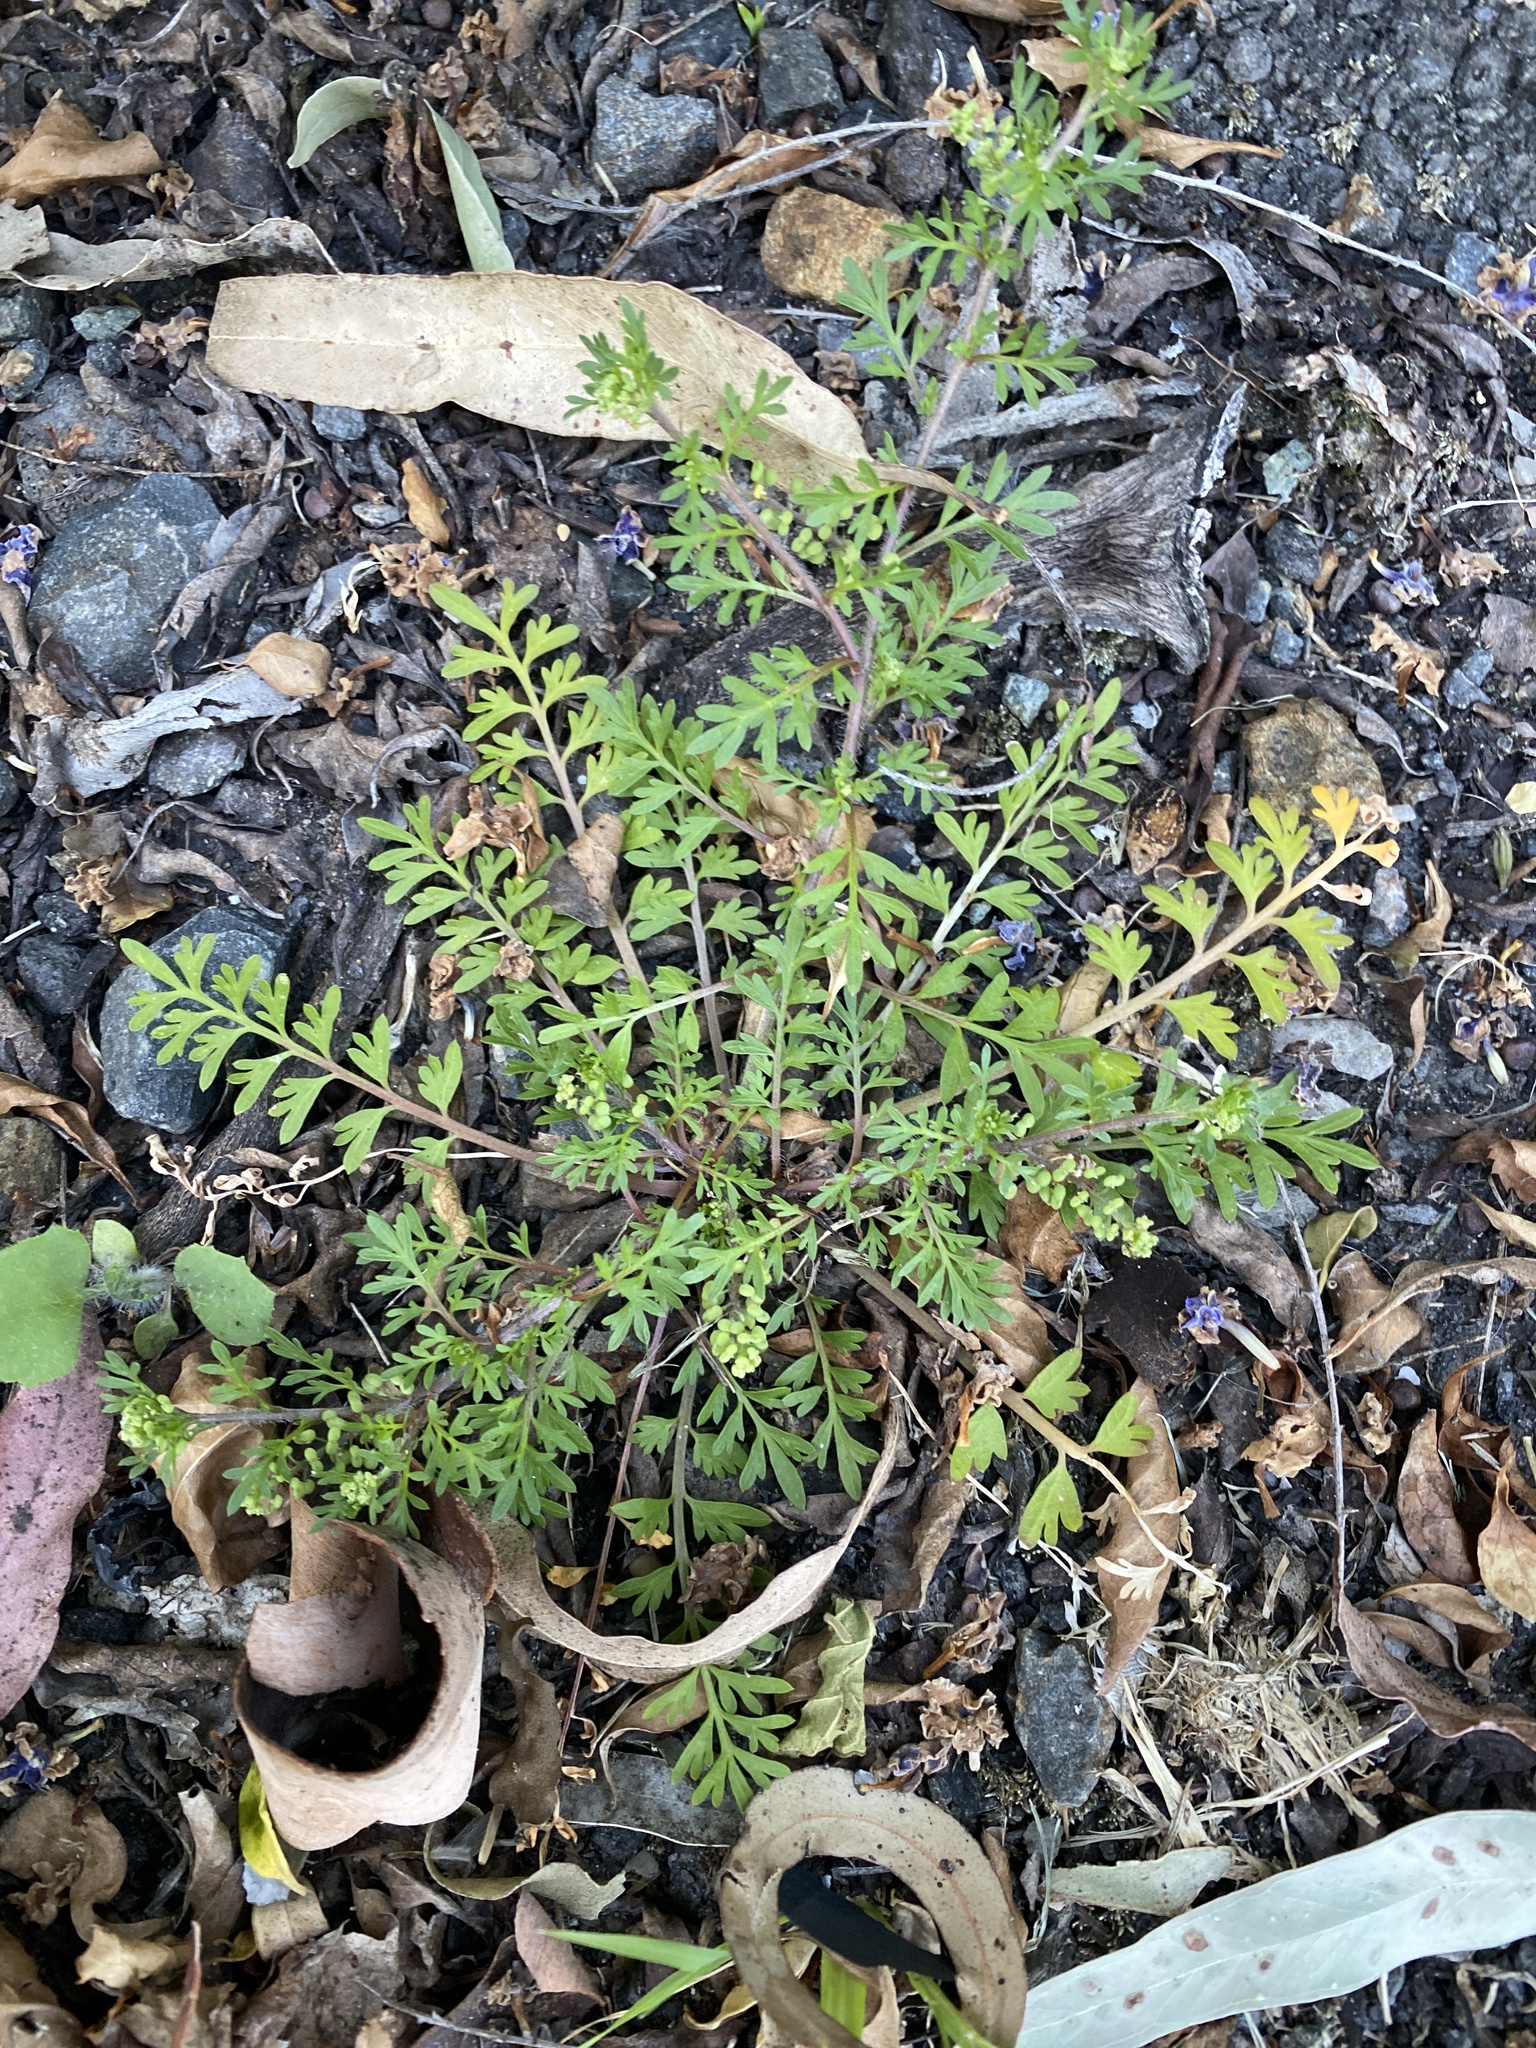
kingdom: Plantae
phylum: Tracheophyta
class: Magnoliopsida
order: Brassicales
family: Brassicaceae
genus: Lepidium
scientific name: Lepidium didymum
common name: Lesser swinecress
